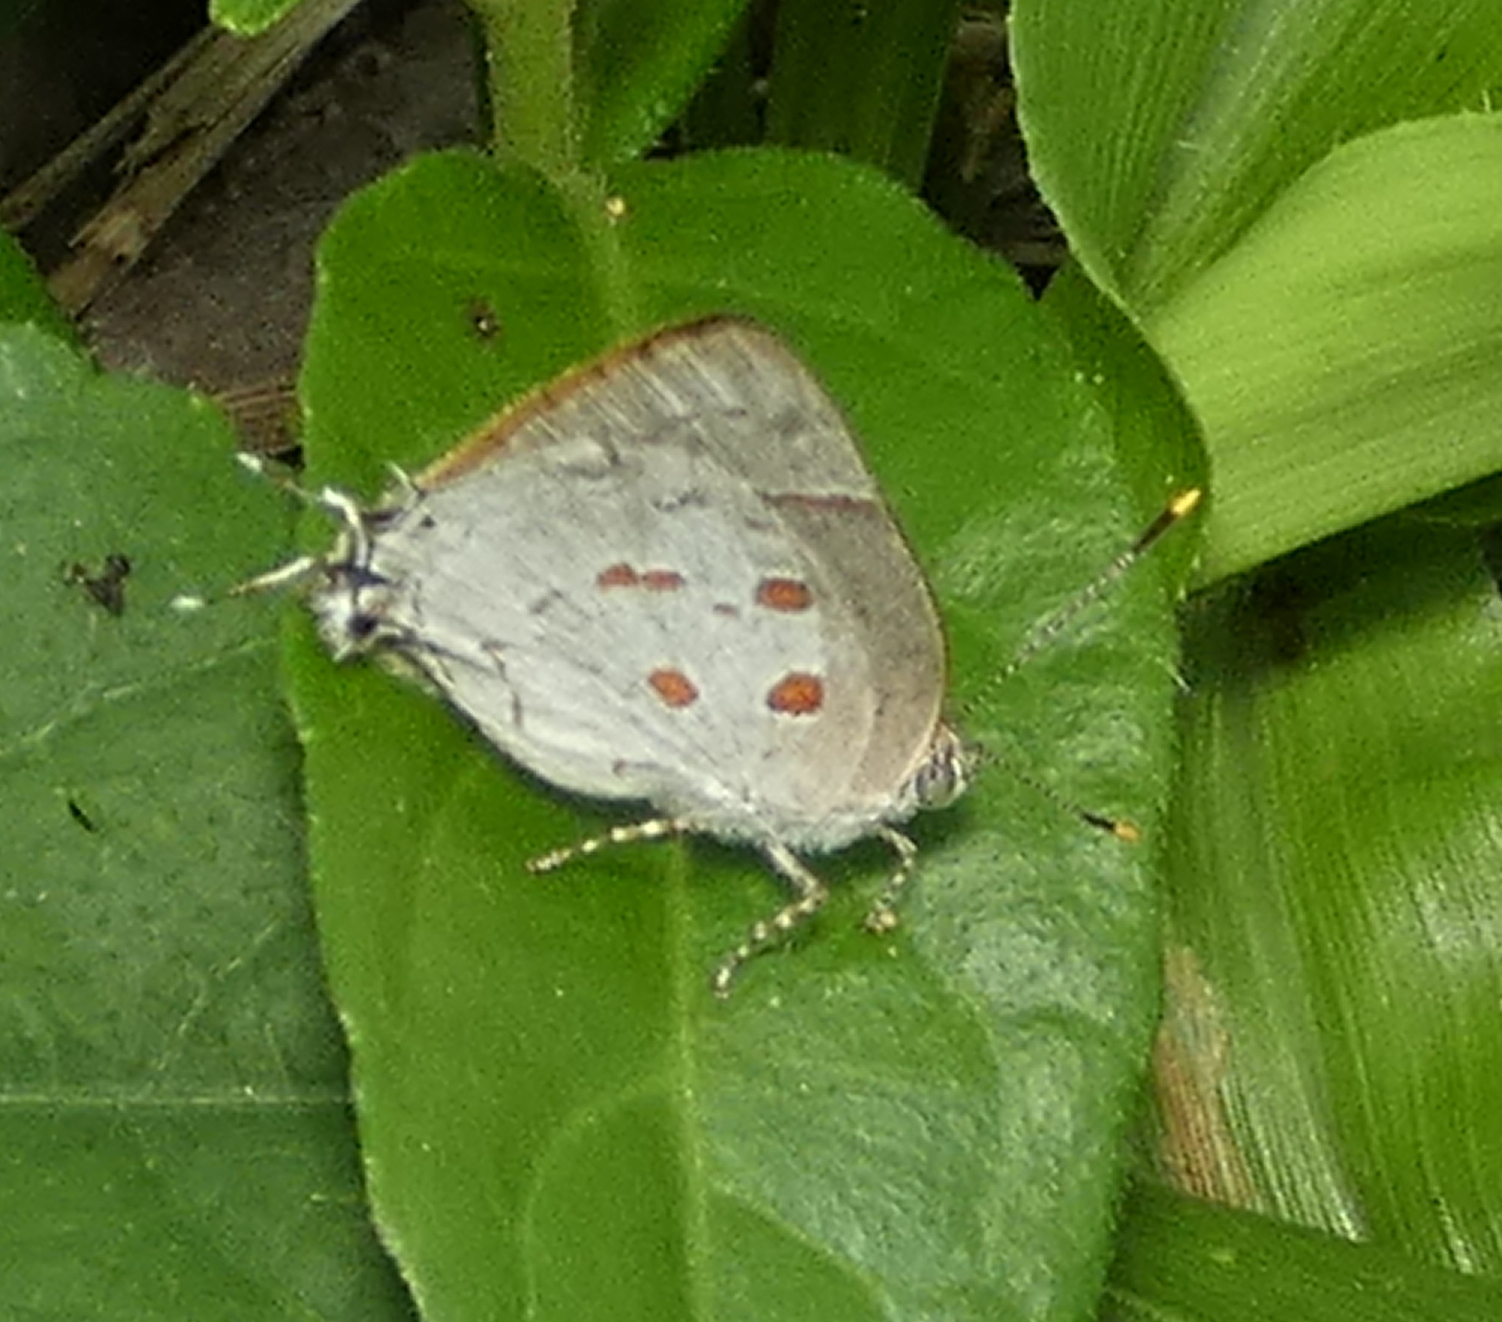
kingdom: Animalia
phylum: Arthropoda
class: Insecta
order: Lepidoptera
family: Lycaenidae
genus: Tmolus
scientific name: Tmolus echion
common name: Red-spotted hairstreak
